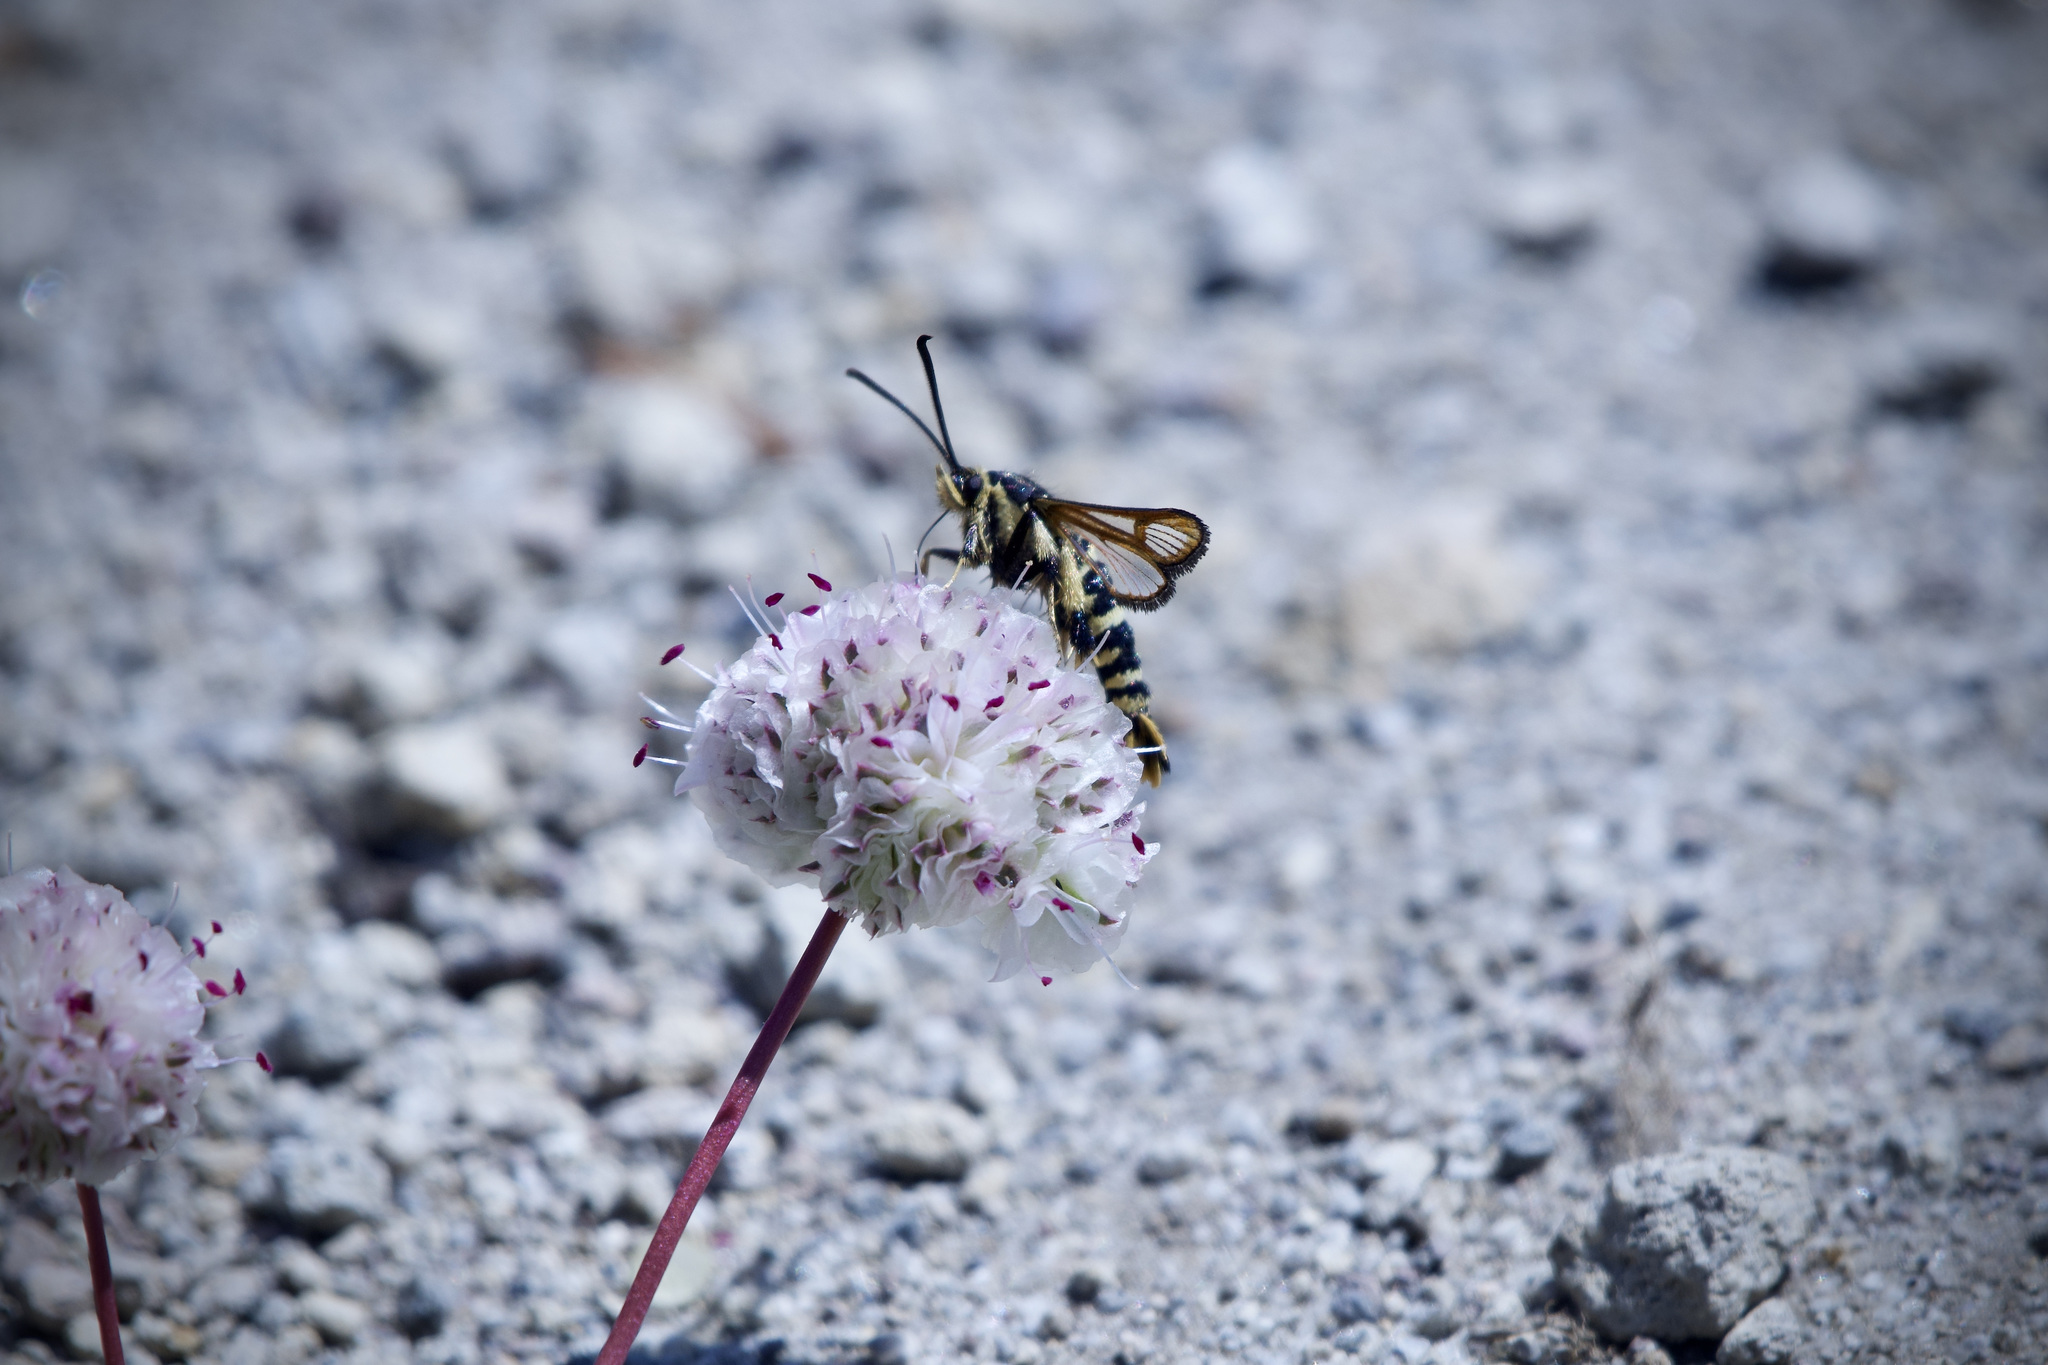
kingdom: Animalia
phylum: Arthropoda
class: Insecta
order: Lepidoptera
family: Sesiidae
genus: Synanthedon
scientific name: Synanthedon chrysidipennis
